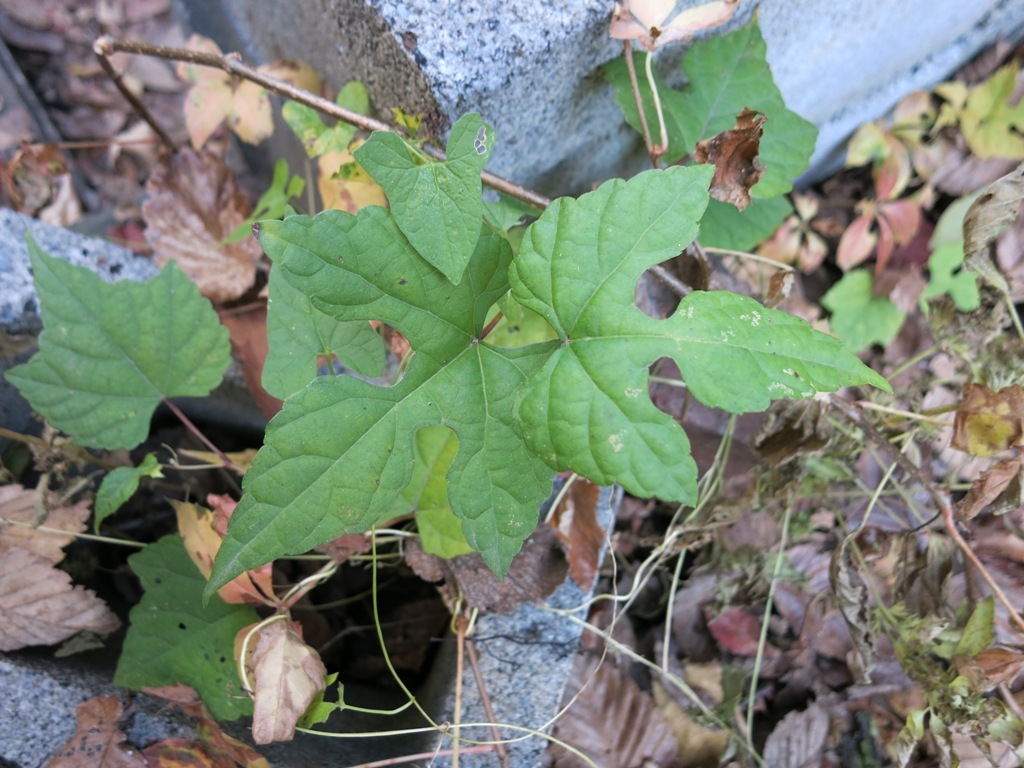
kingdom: Plantae
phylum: Tracheophyta
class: Magnoliopsida
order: Vitales
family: Vitaceae
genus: Ampelopsis
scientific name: Ampelopsis glandulosa
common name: Amur peppervine
